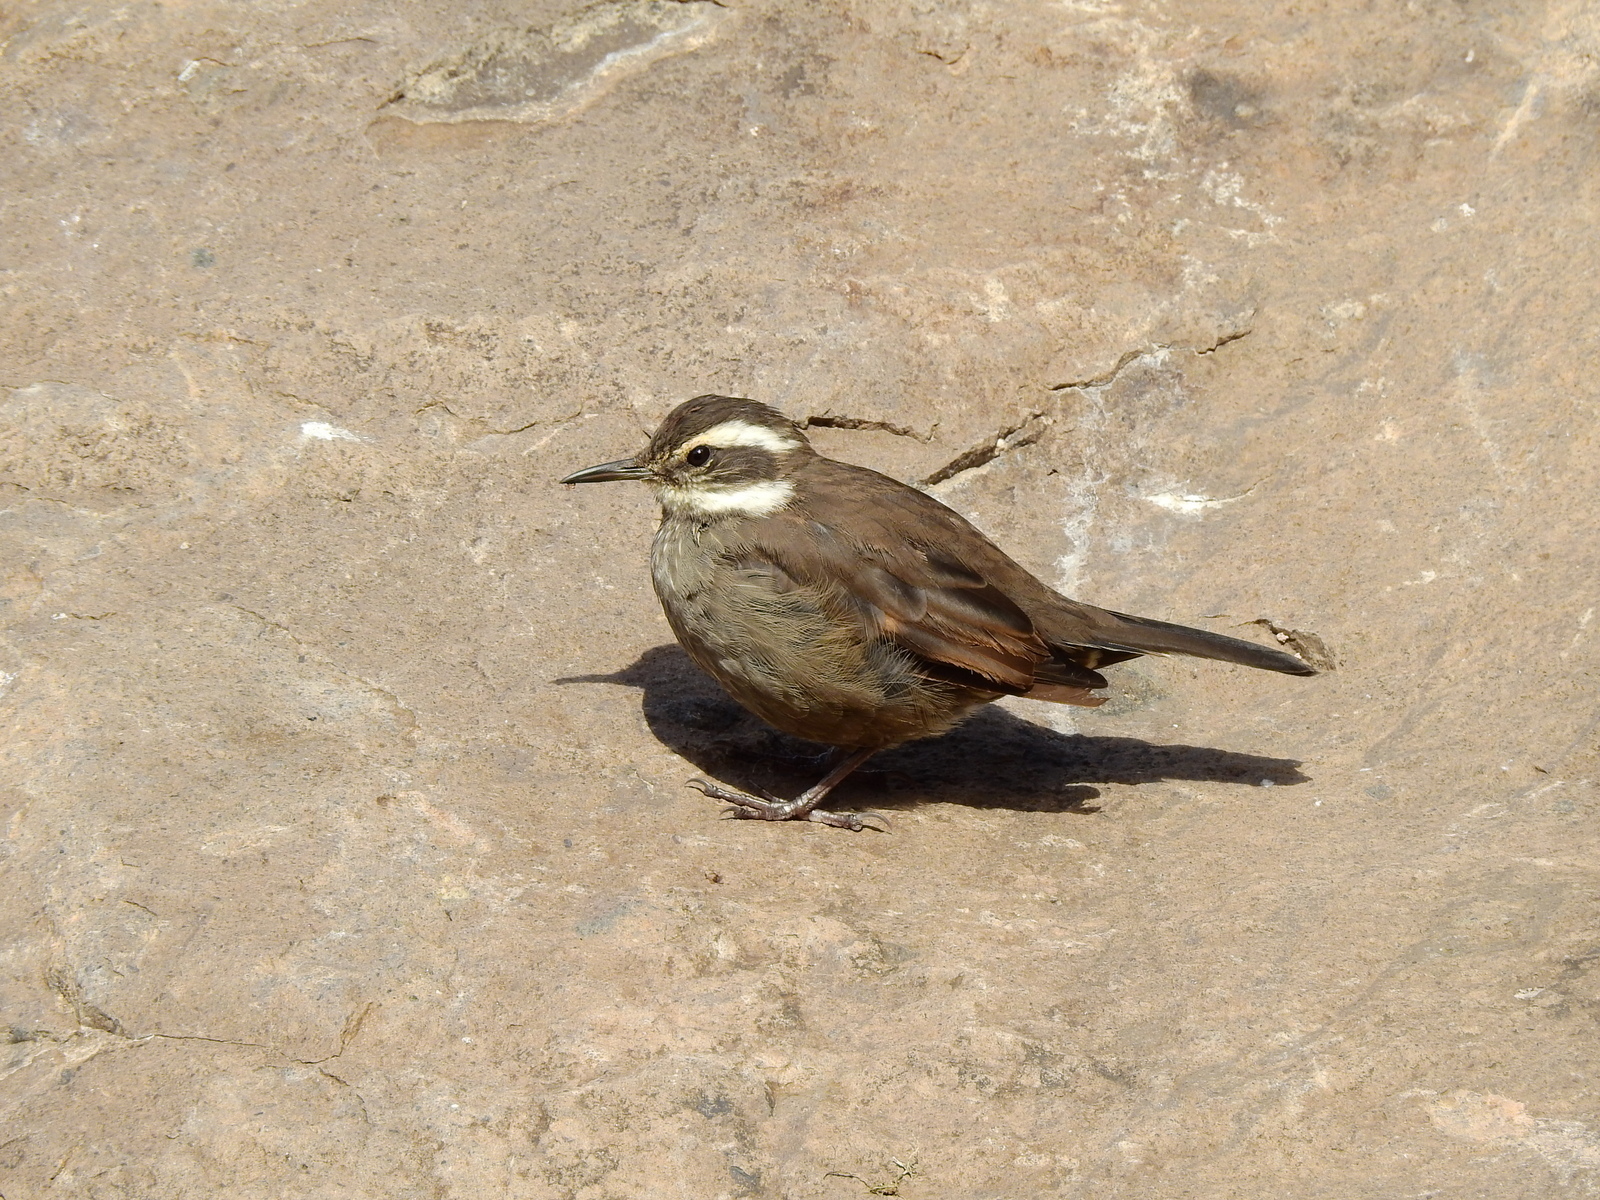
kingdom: Animalia
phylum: Chordata
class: Aves
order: Passeriformes
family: Furnariidae
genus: Cinclodes
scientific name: Cinclodes patagonicus
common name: Dark-bellied cinclodes
